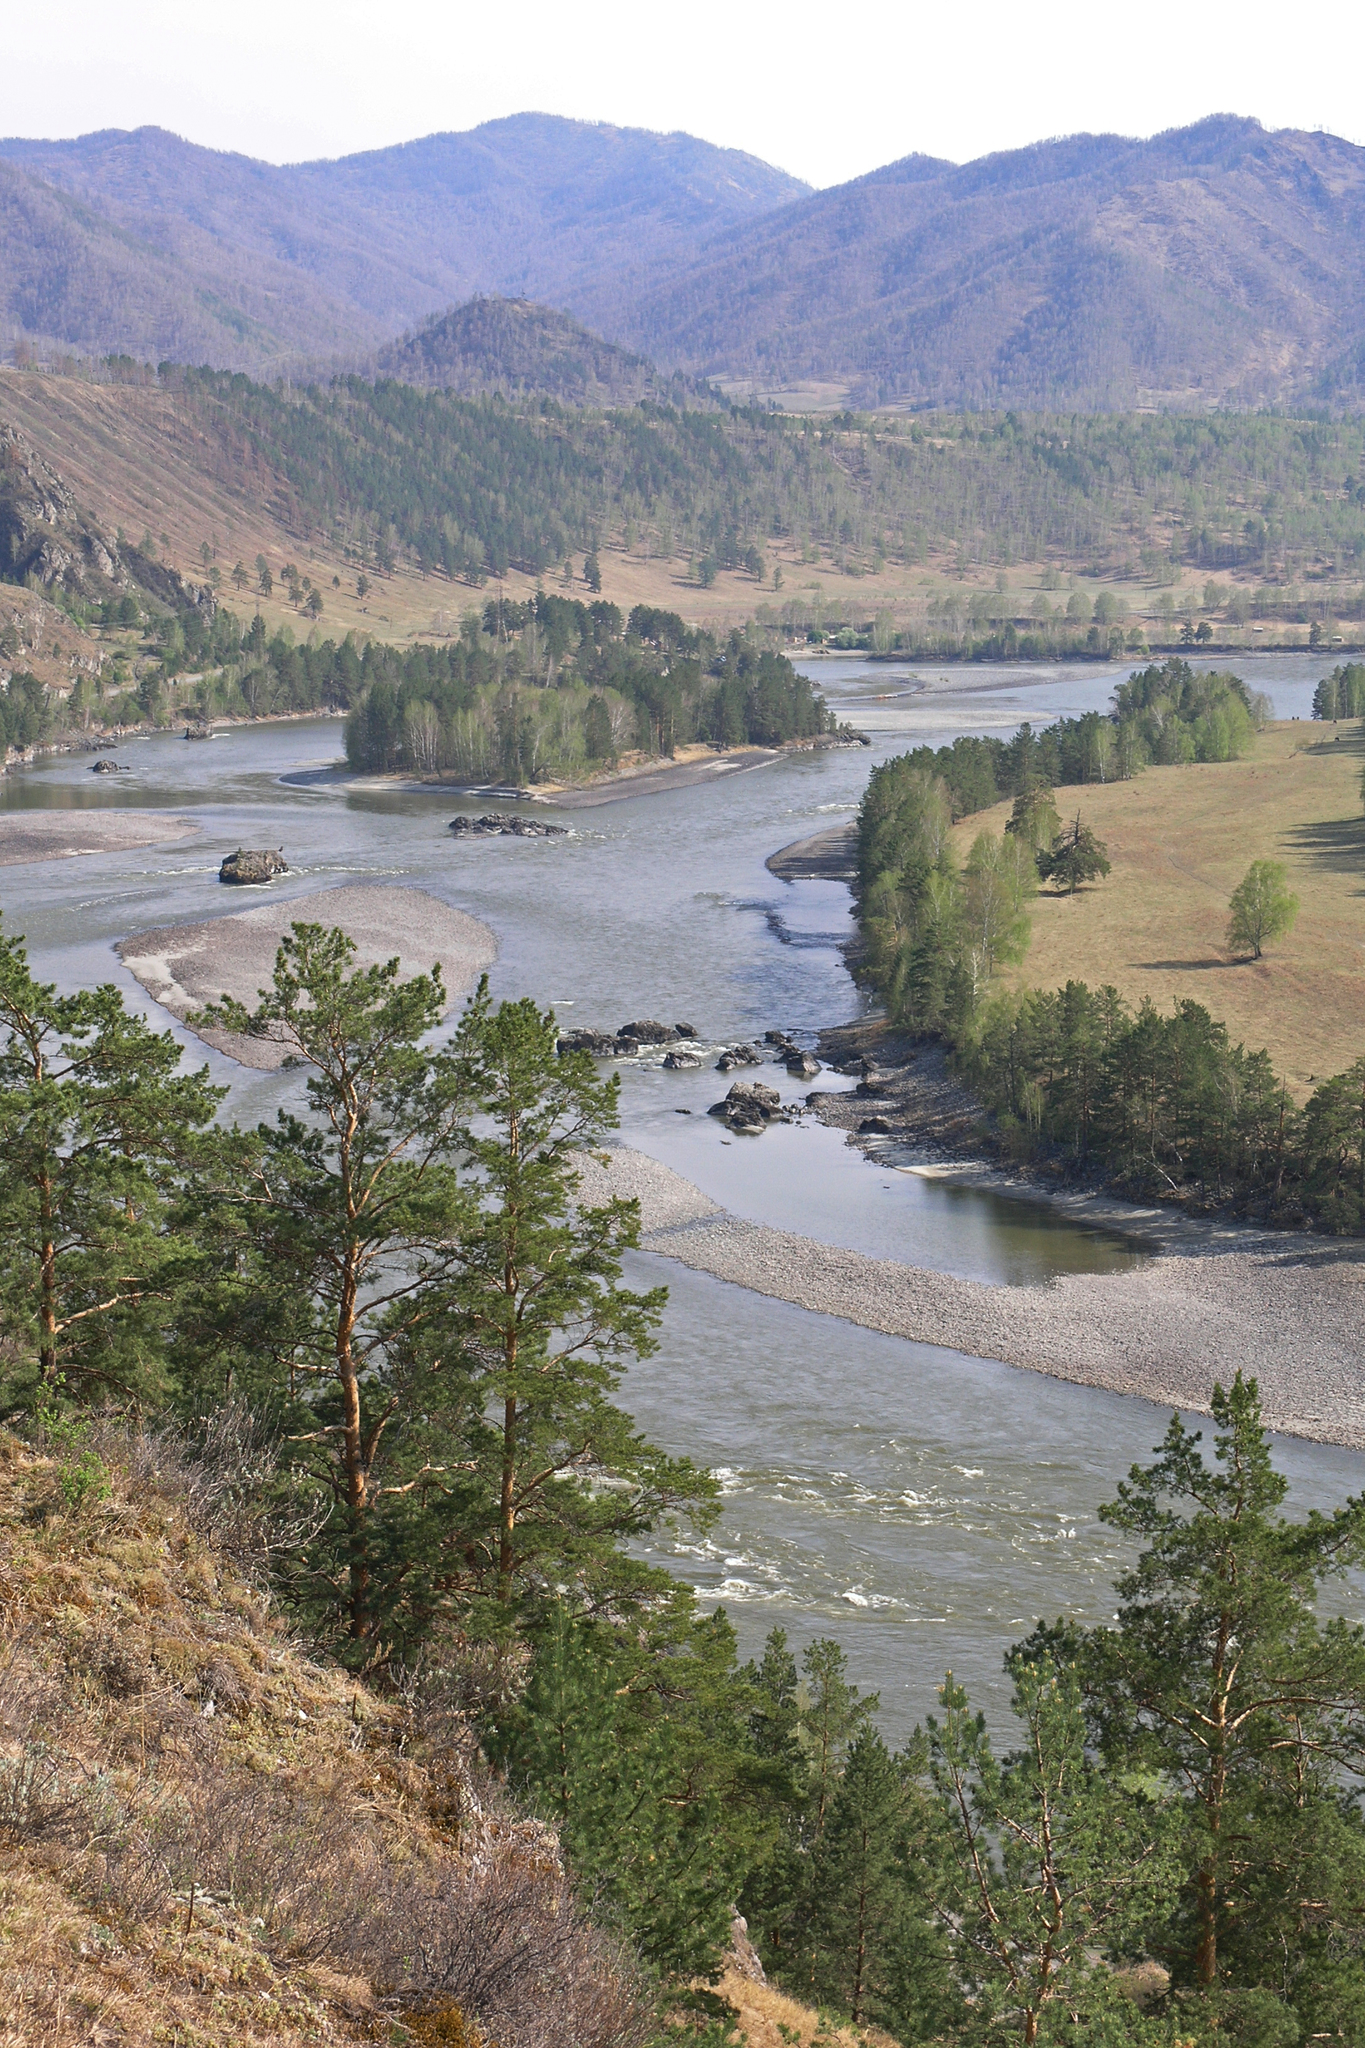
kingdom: Plantae
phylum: Tracheophyta
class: Pinopsida
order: Pinales
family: Pinaceae
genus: Pinus
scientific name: Pinus sylvestris
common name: Scots pine
